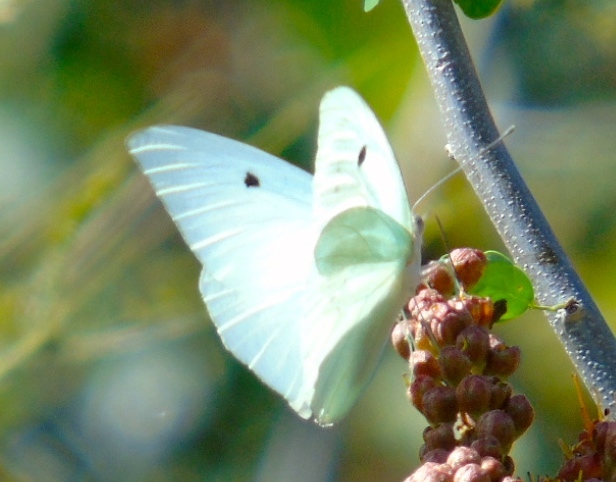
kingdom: Animalia
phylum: Arthropoda
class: Insecta
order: Lepidoptera
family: Pieridae
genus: Ganyra
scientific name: Ganyra josephina
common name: Giant white
